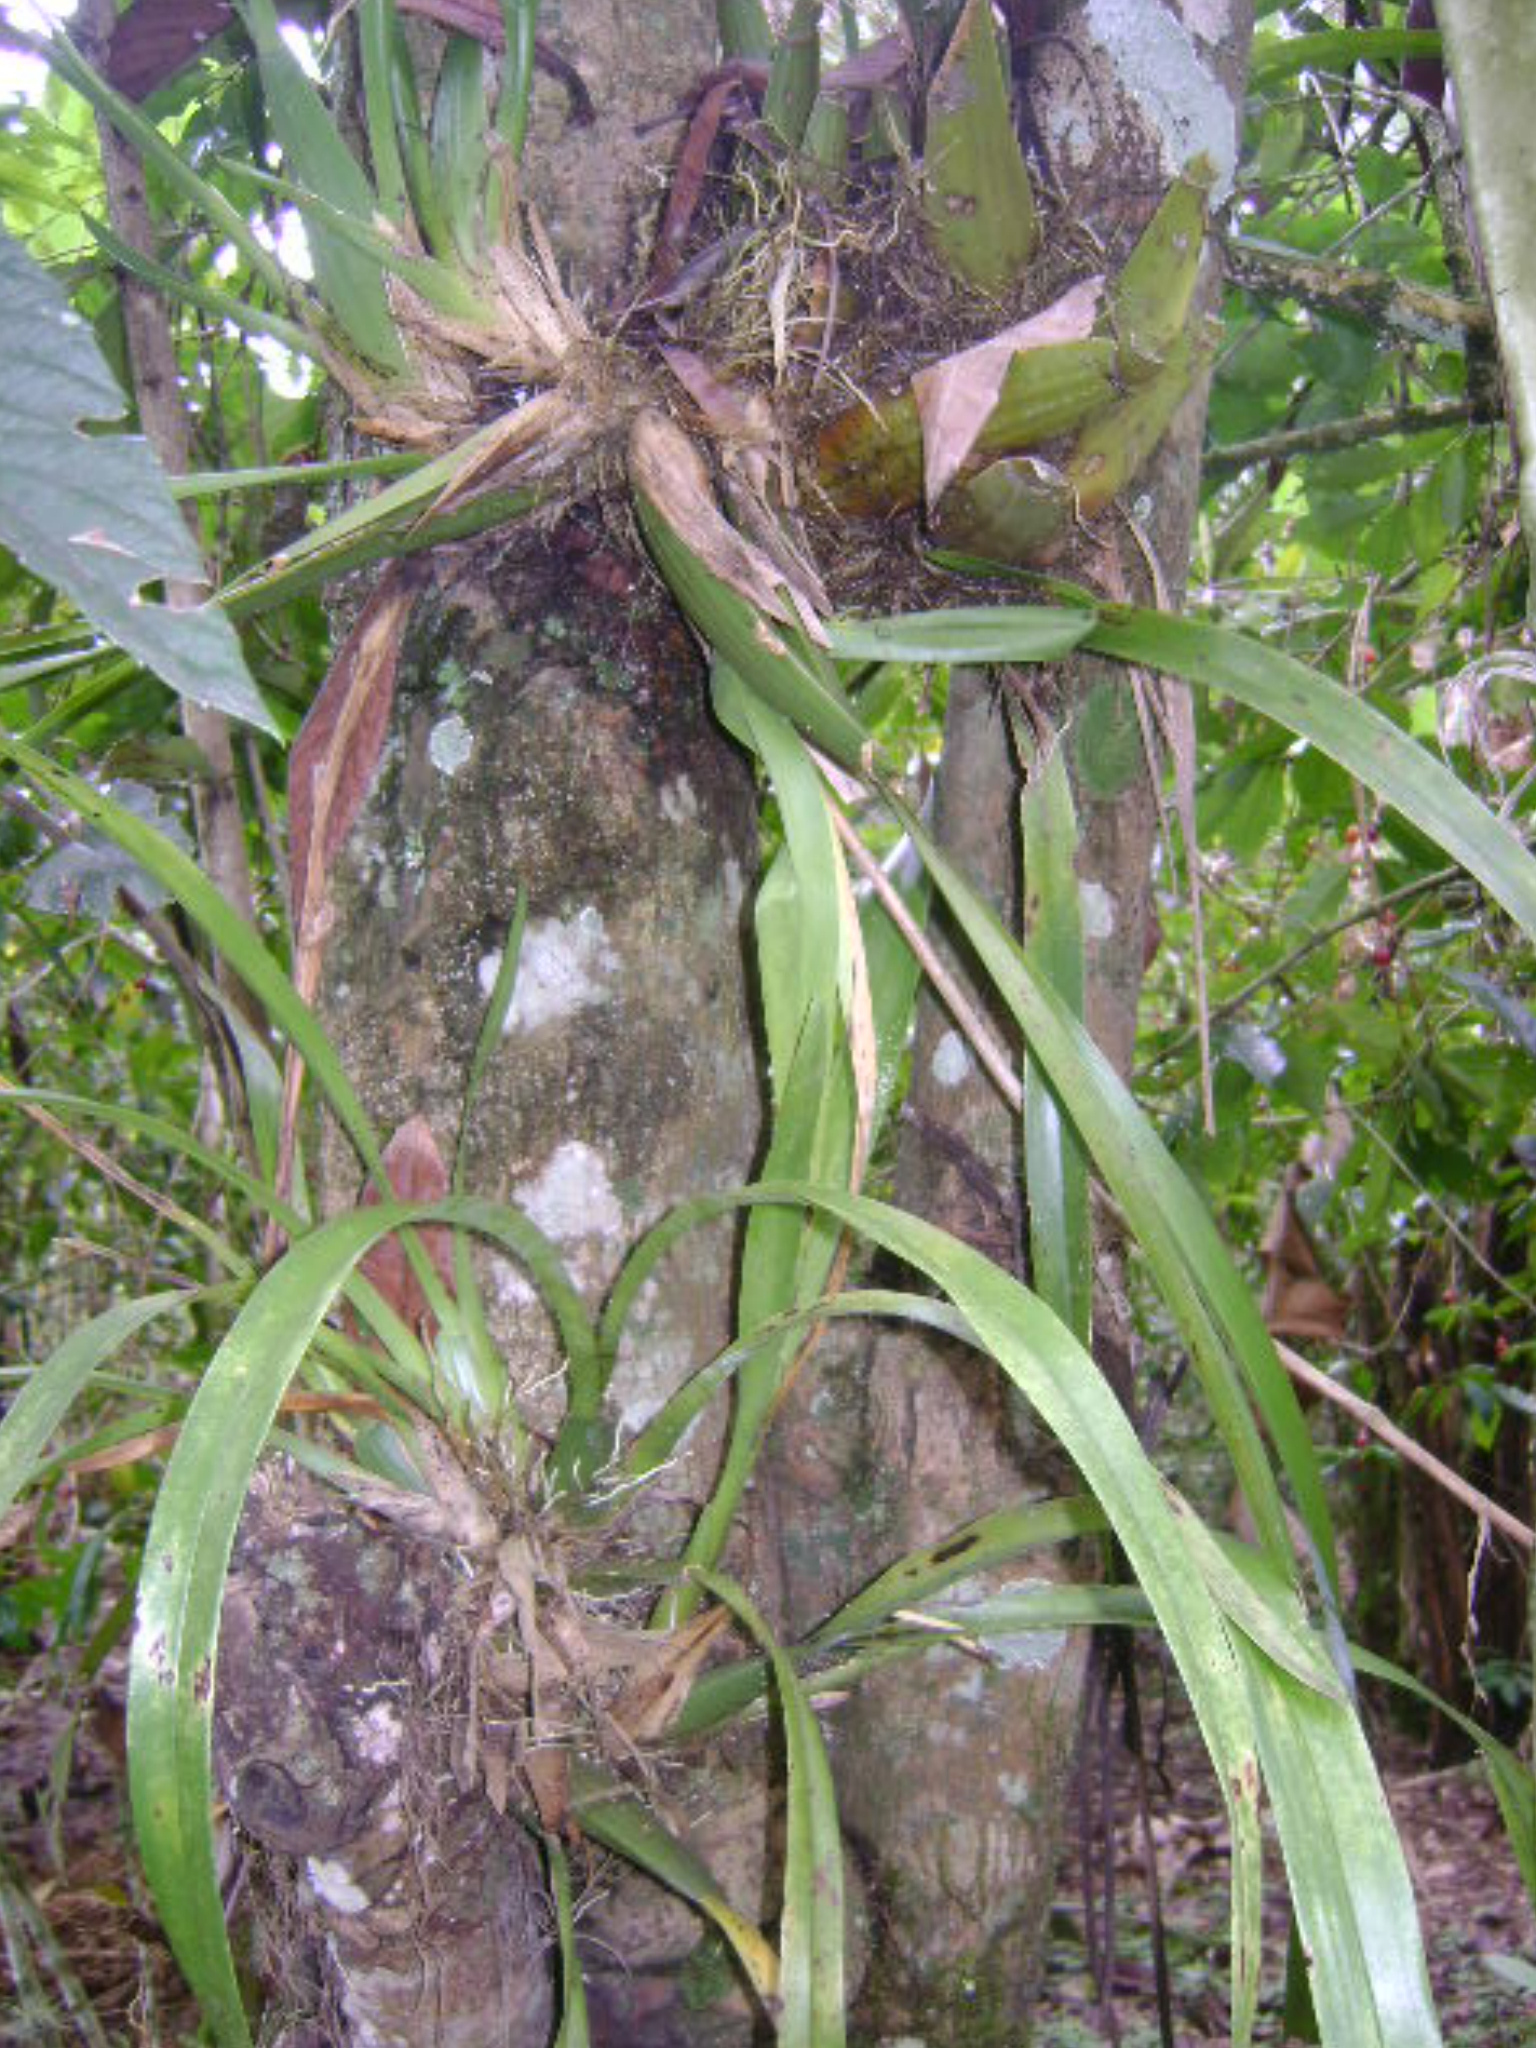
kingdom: Plantae
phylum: Tracheophyta
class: Liliopsida
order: Asparagales
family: Orchidaceae
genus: Oncidium
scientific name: Oncidium sphacelatum
